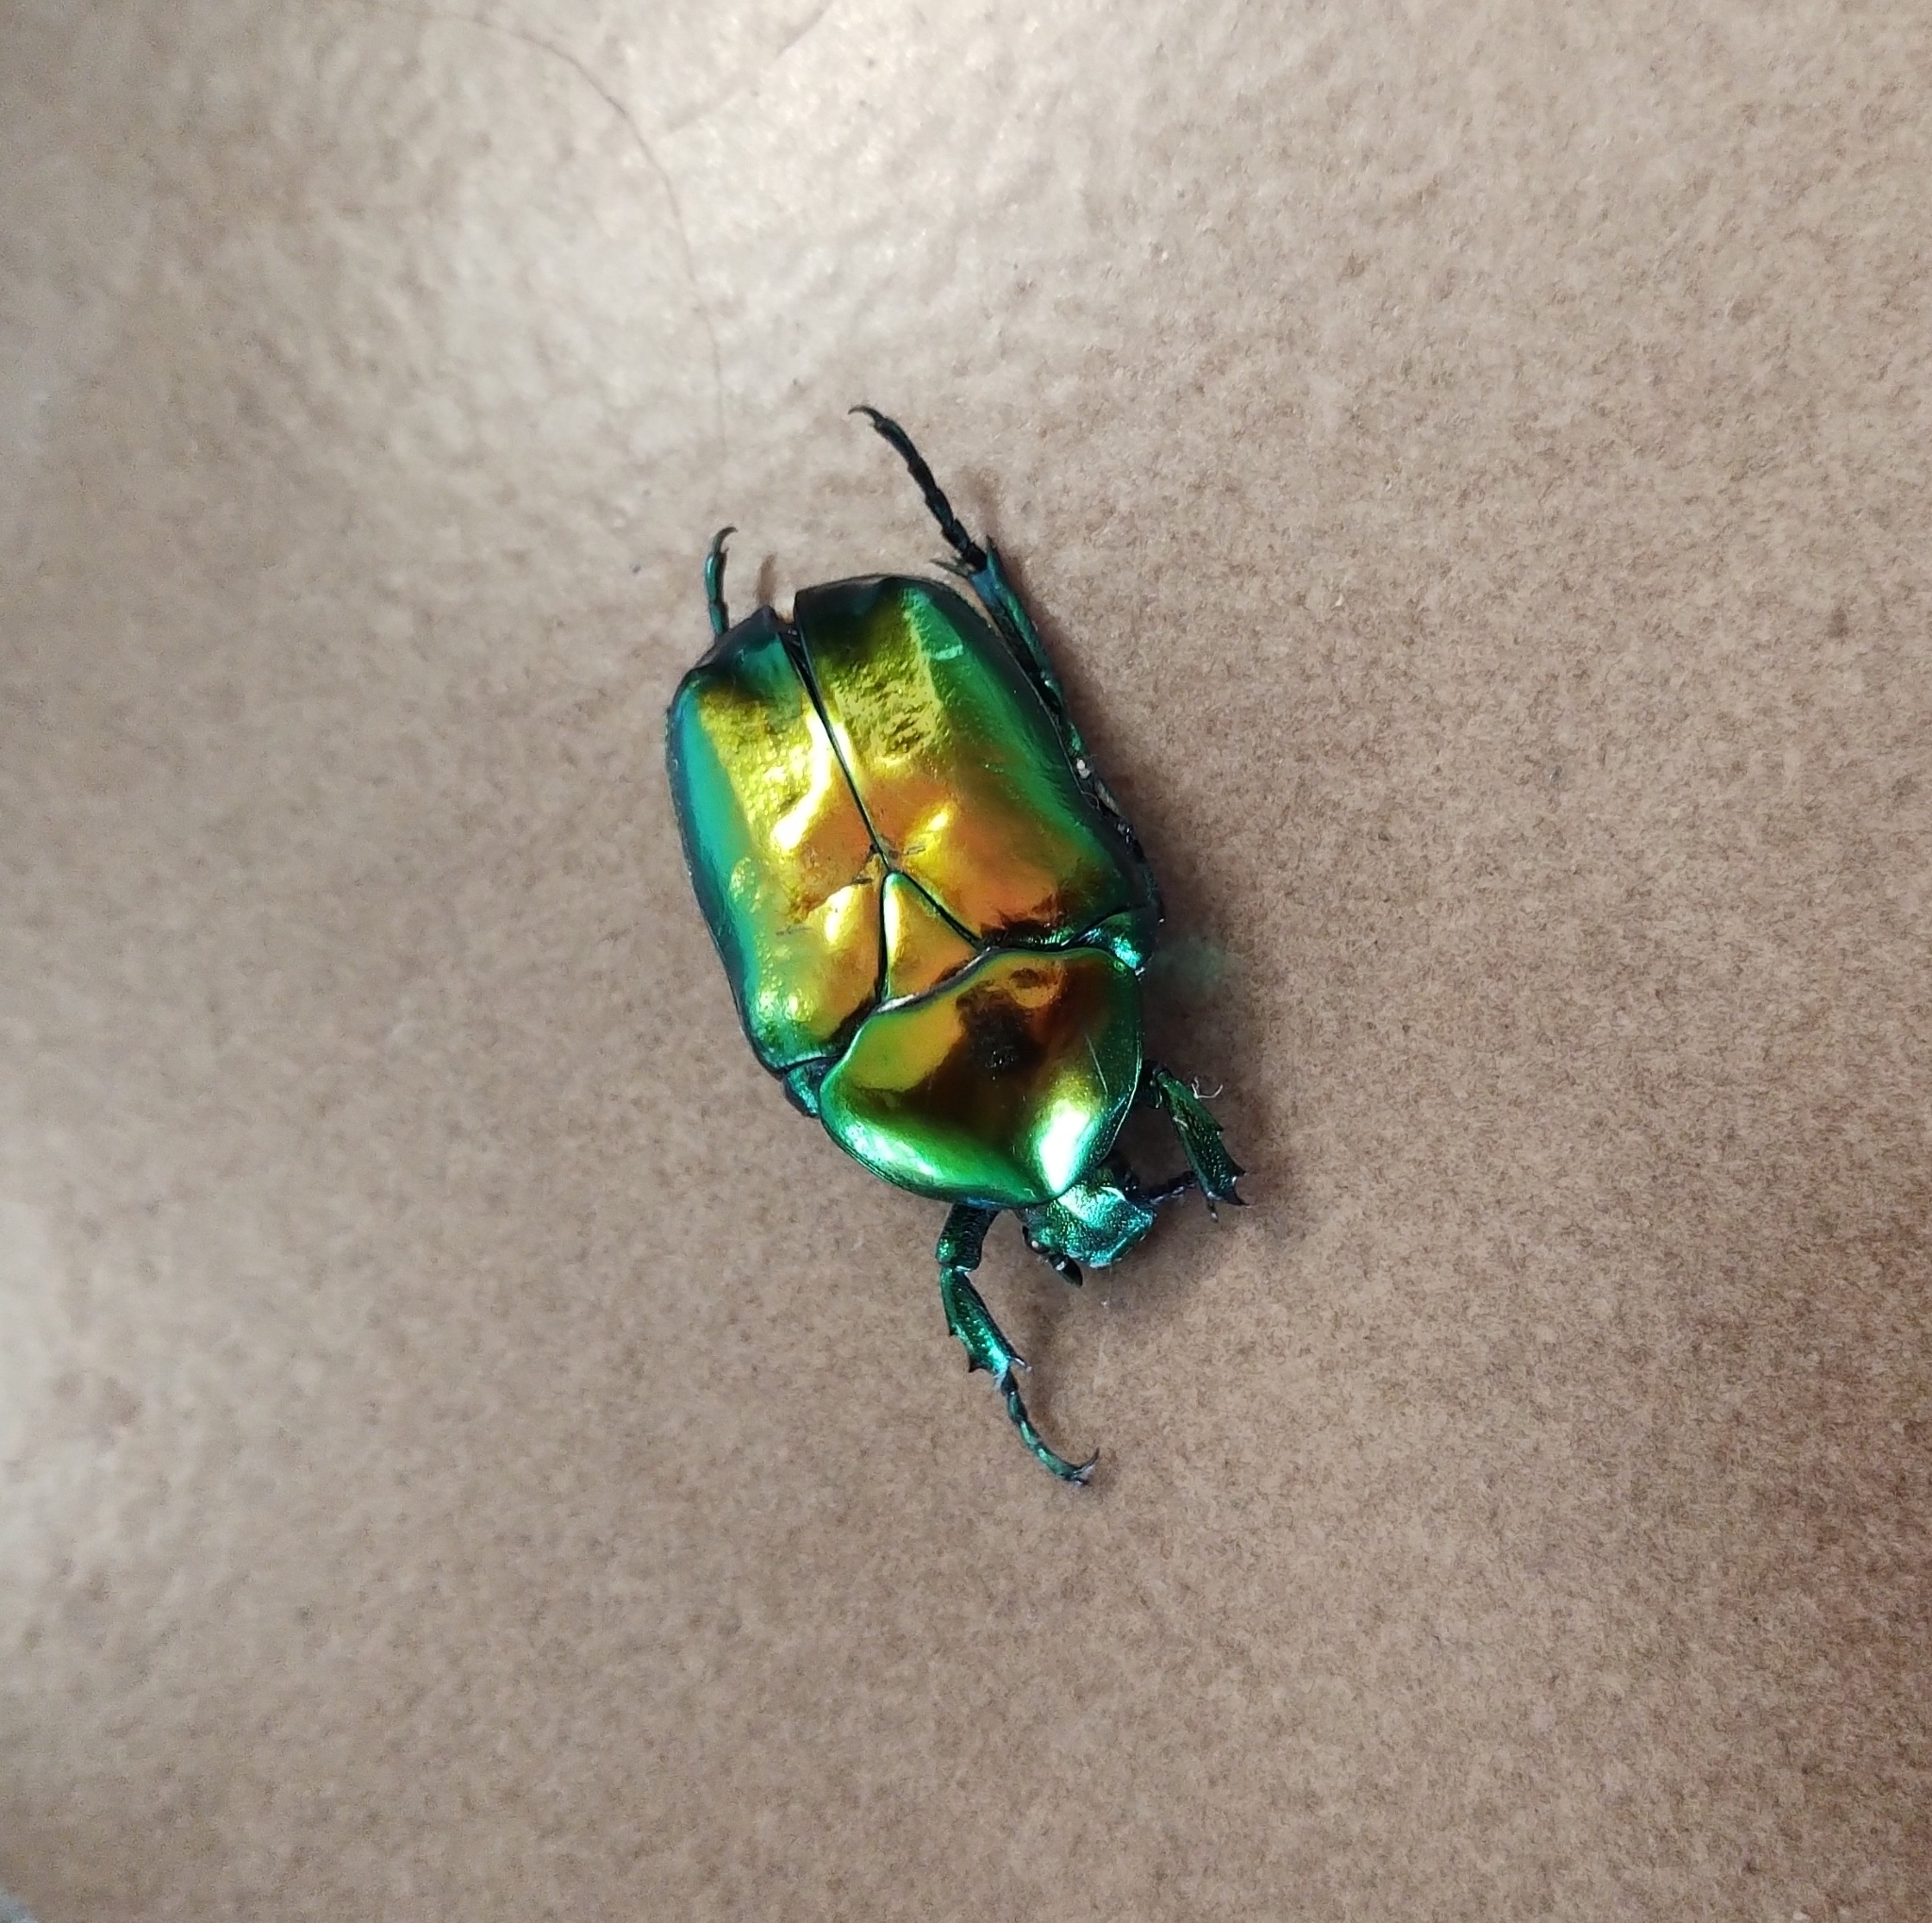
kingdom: Animalia
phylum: Arthropoda
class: Insecta
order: Coleoptera
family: Scarabaeidae
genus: Protaetia
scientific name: Protaetia speciosissima
